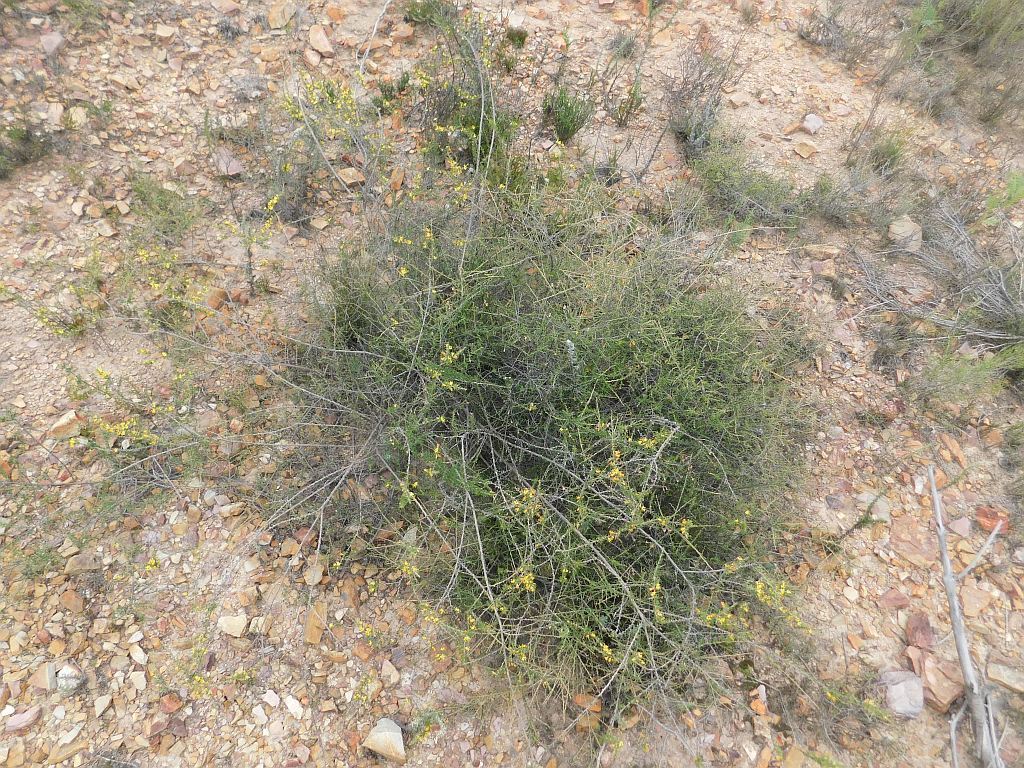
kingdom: Plantae
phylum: Tracheophyta
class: Magnoliopsida
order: Fabales
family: Fabaceae
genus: Aspalathus
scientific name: Aspalathus spinosa
